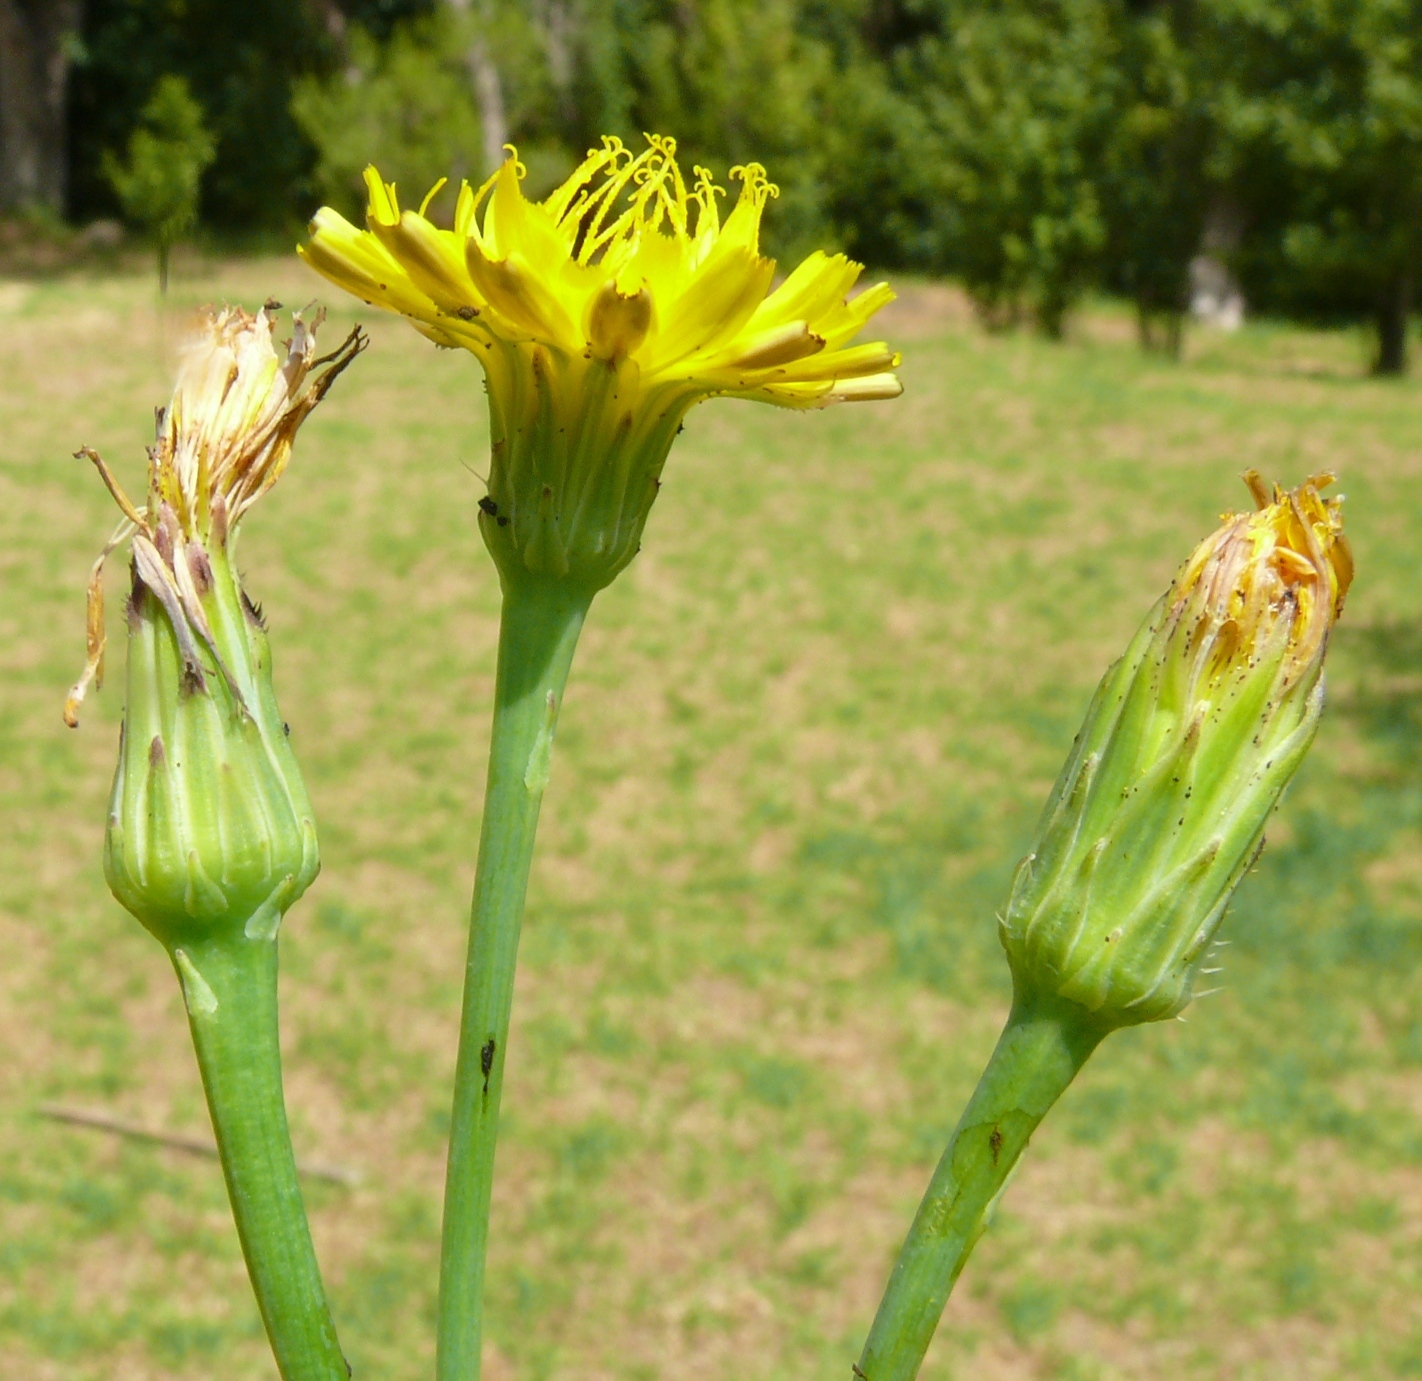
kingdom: Plantae
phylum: Tracheophyta
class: Magnoliopsida
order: Asterales
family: Asteraceae
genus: Hypochaeris
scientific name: Hypochaeris radicata
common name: Flatweed
